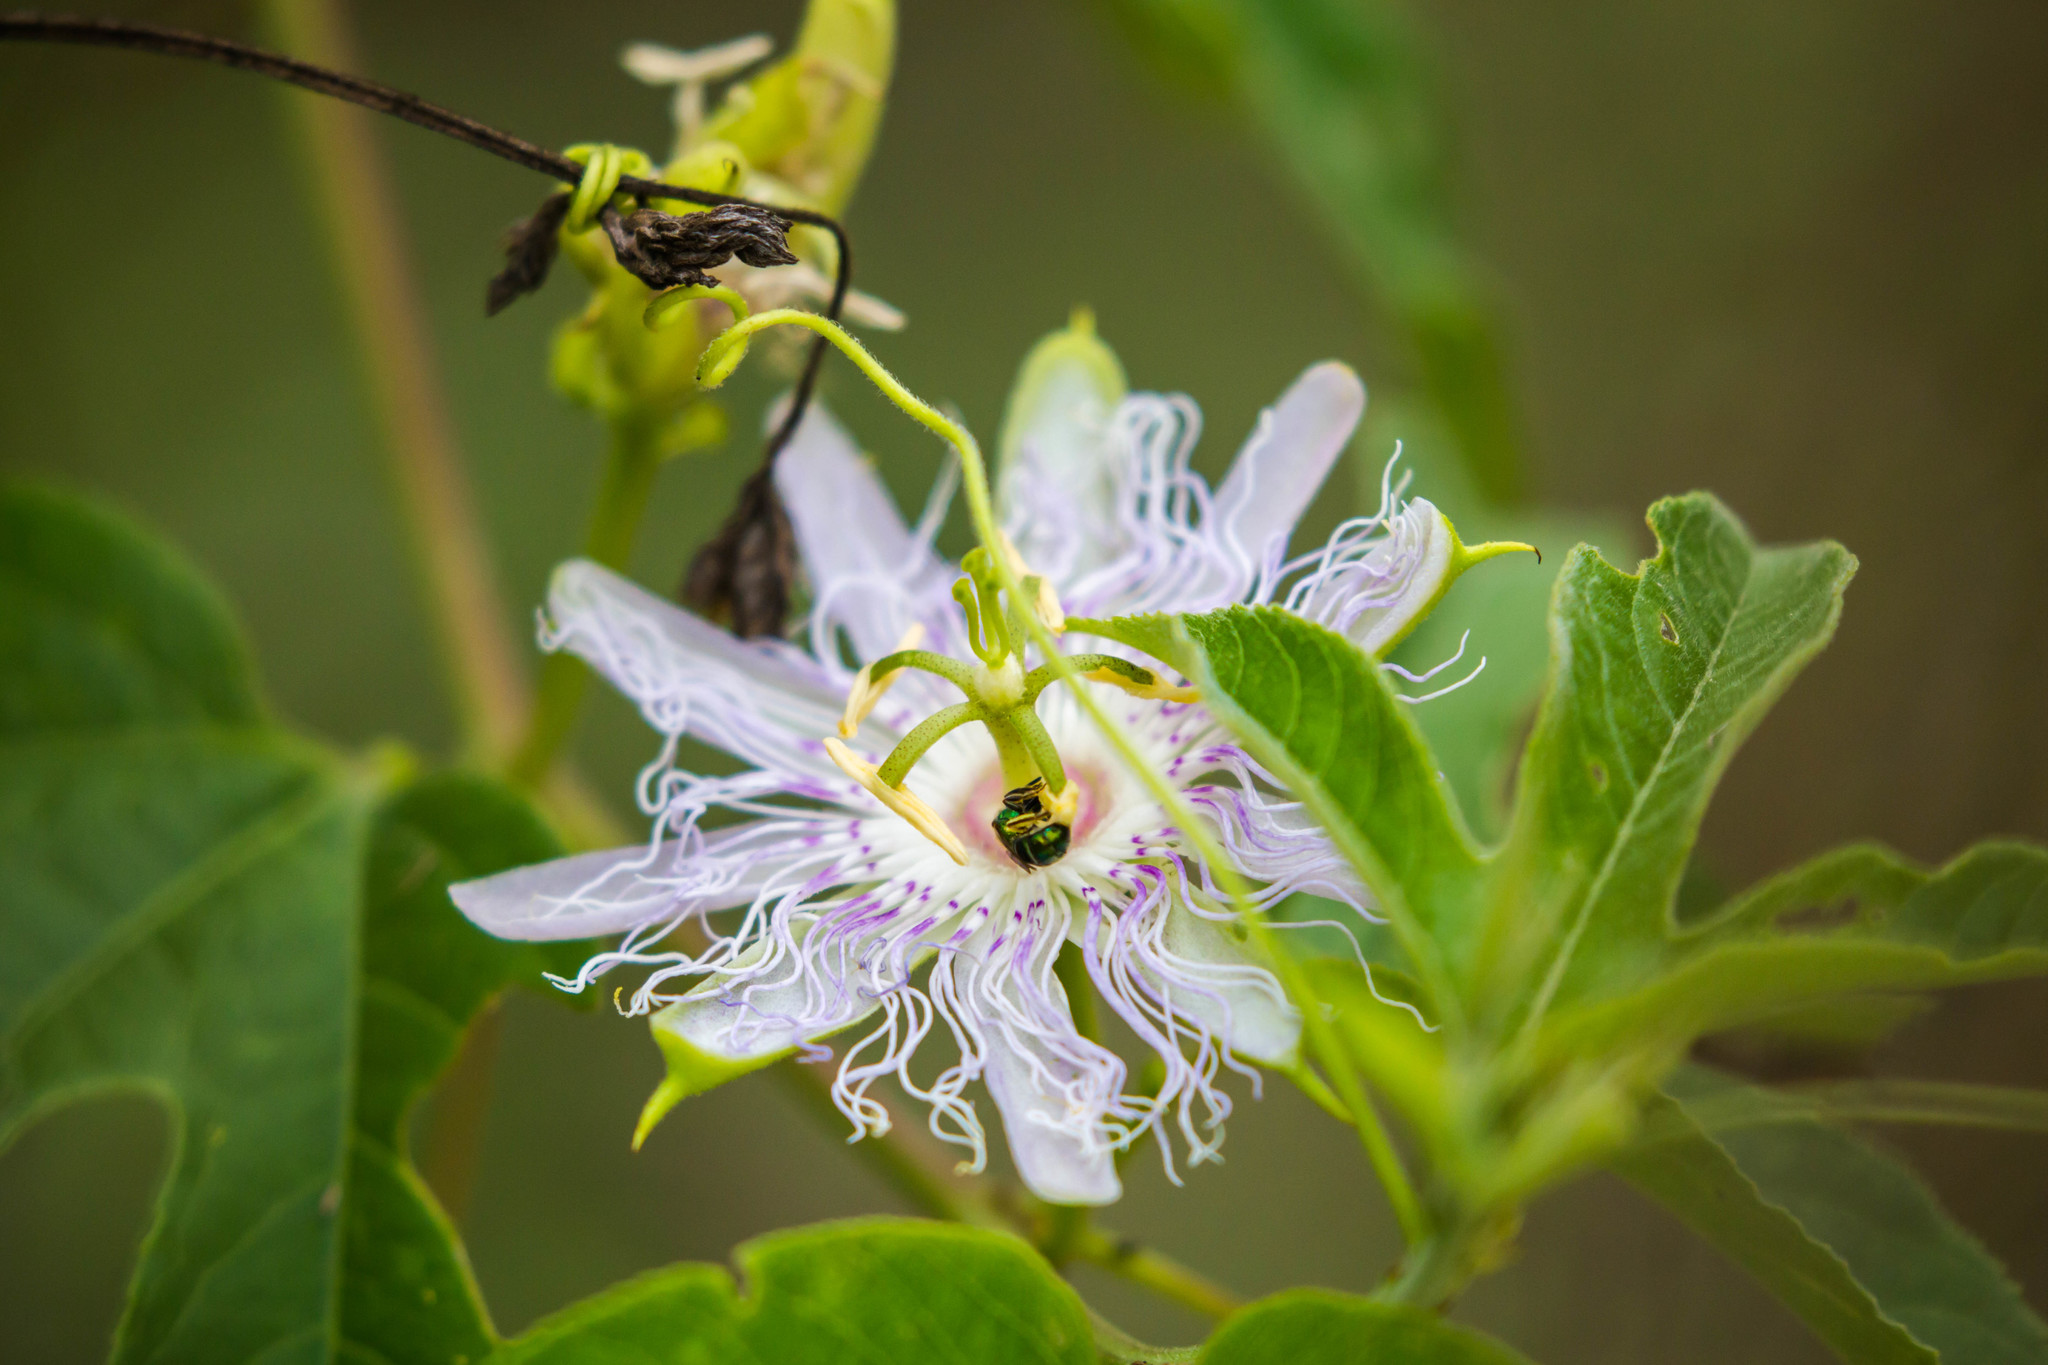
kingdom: Plantae
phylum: Tracheophyta
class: Magnoliopsida
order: Malpighiales
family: Passifloraceae
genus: Passiflora
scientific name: Passiflora incarnata
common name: Apricot-vine
